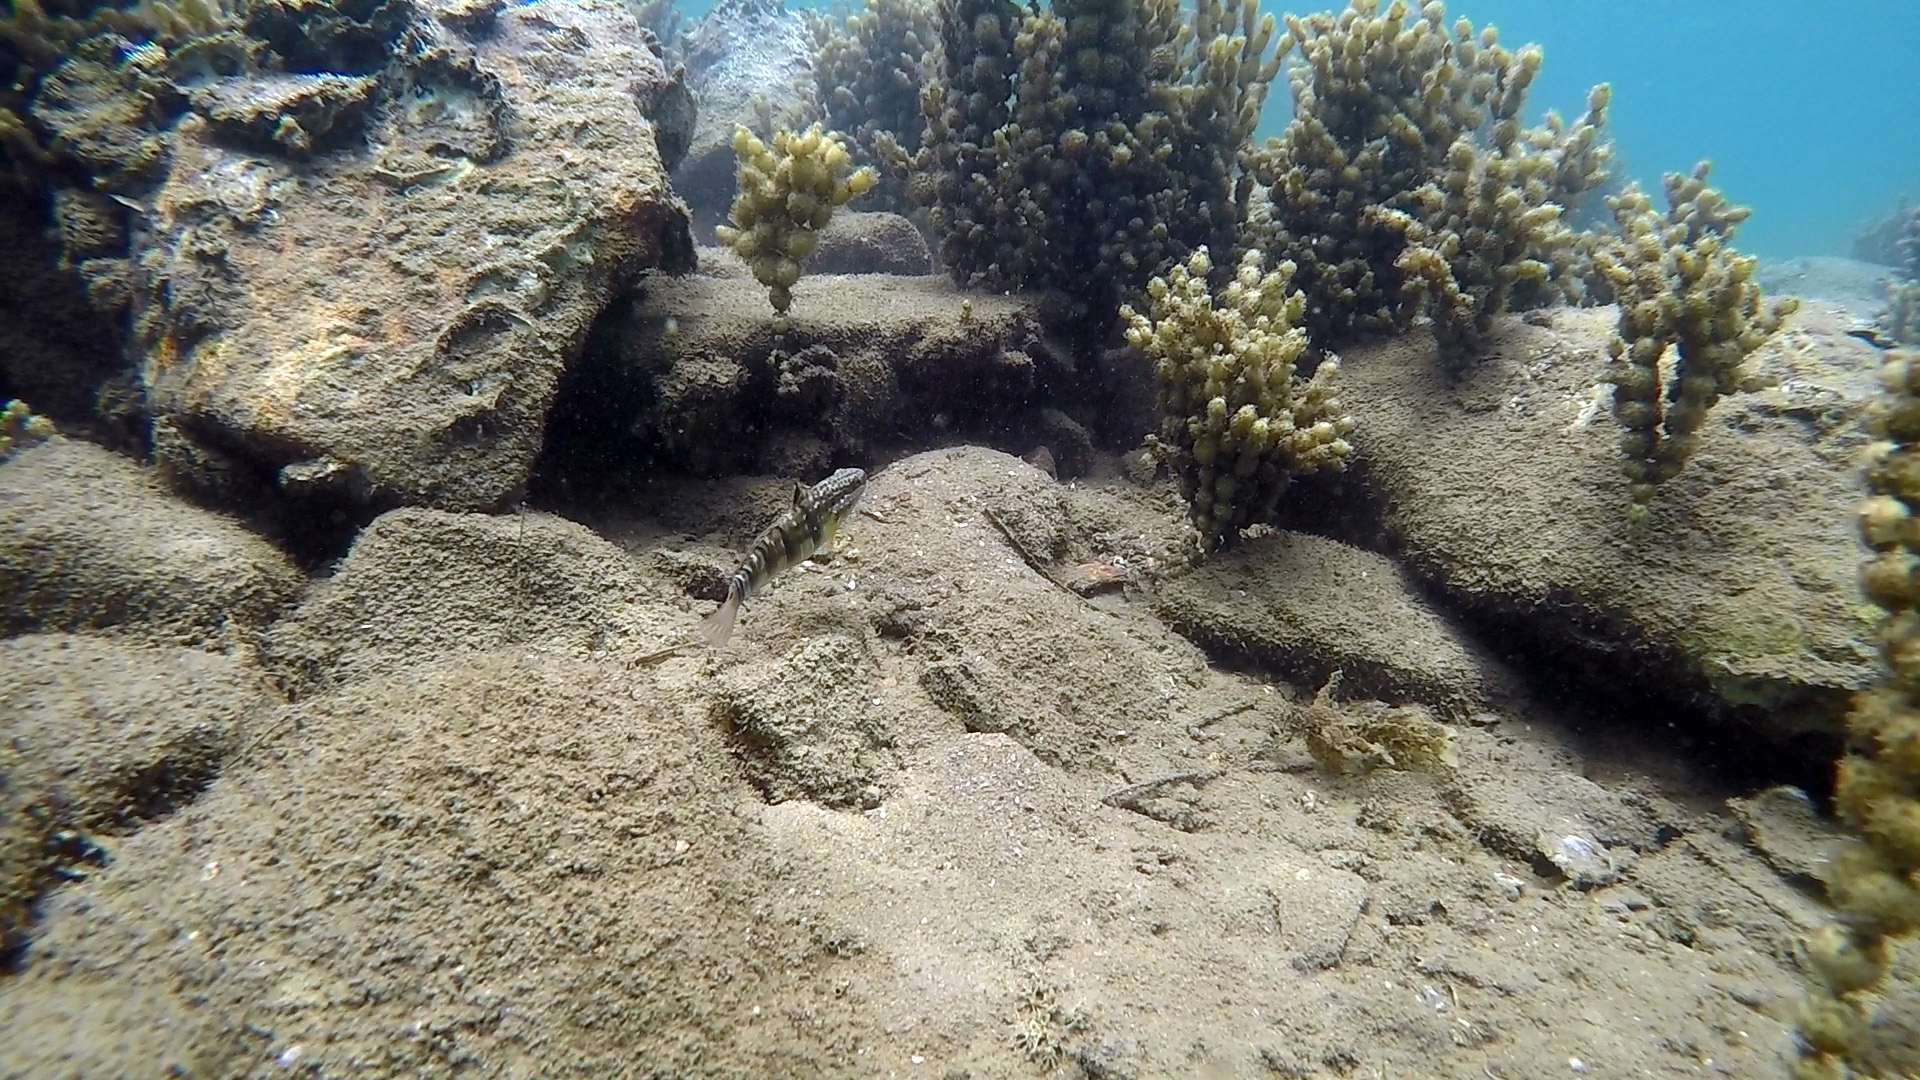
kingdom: Animalia
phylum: Chordata
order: Perciformes
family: Gobiidae
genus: Amblygobius
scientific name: Amblygobius phalaena
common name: Banded goby
